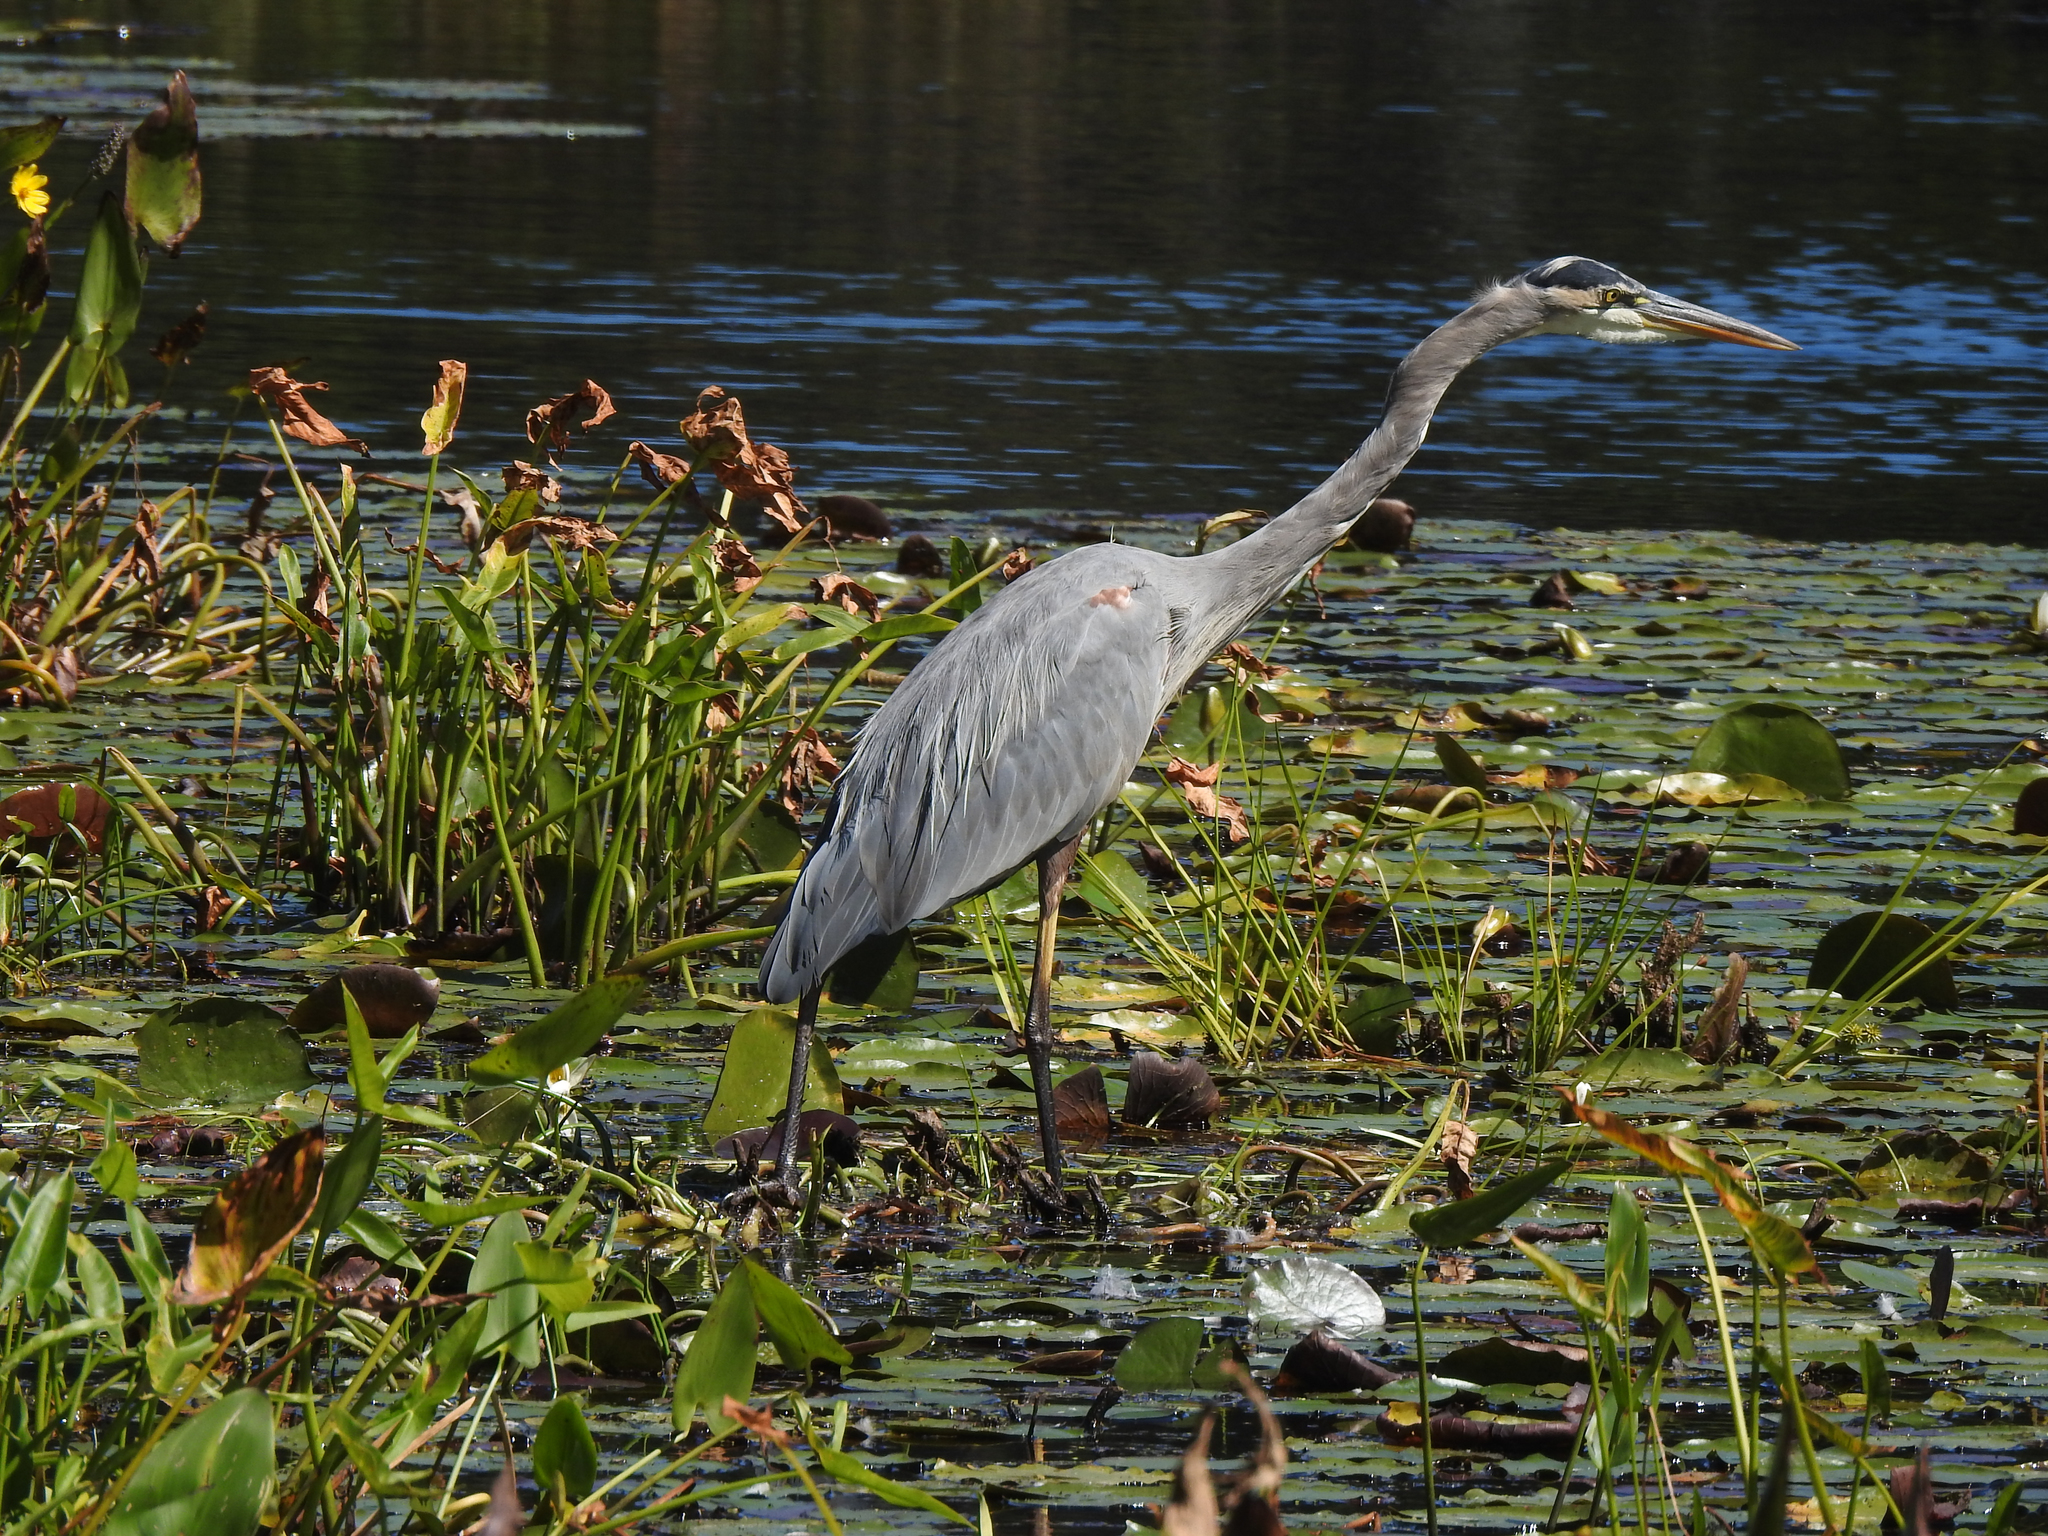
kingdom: Animalia
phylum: Chordata
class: Aves
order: Pelecaniformes
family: Ardeidae
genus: Ardea
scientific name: Ardea herodias
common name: Great blue heron
